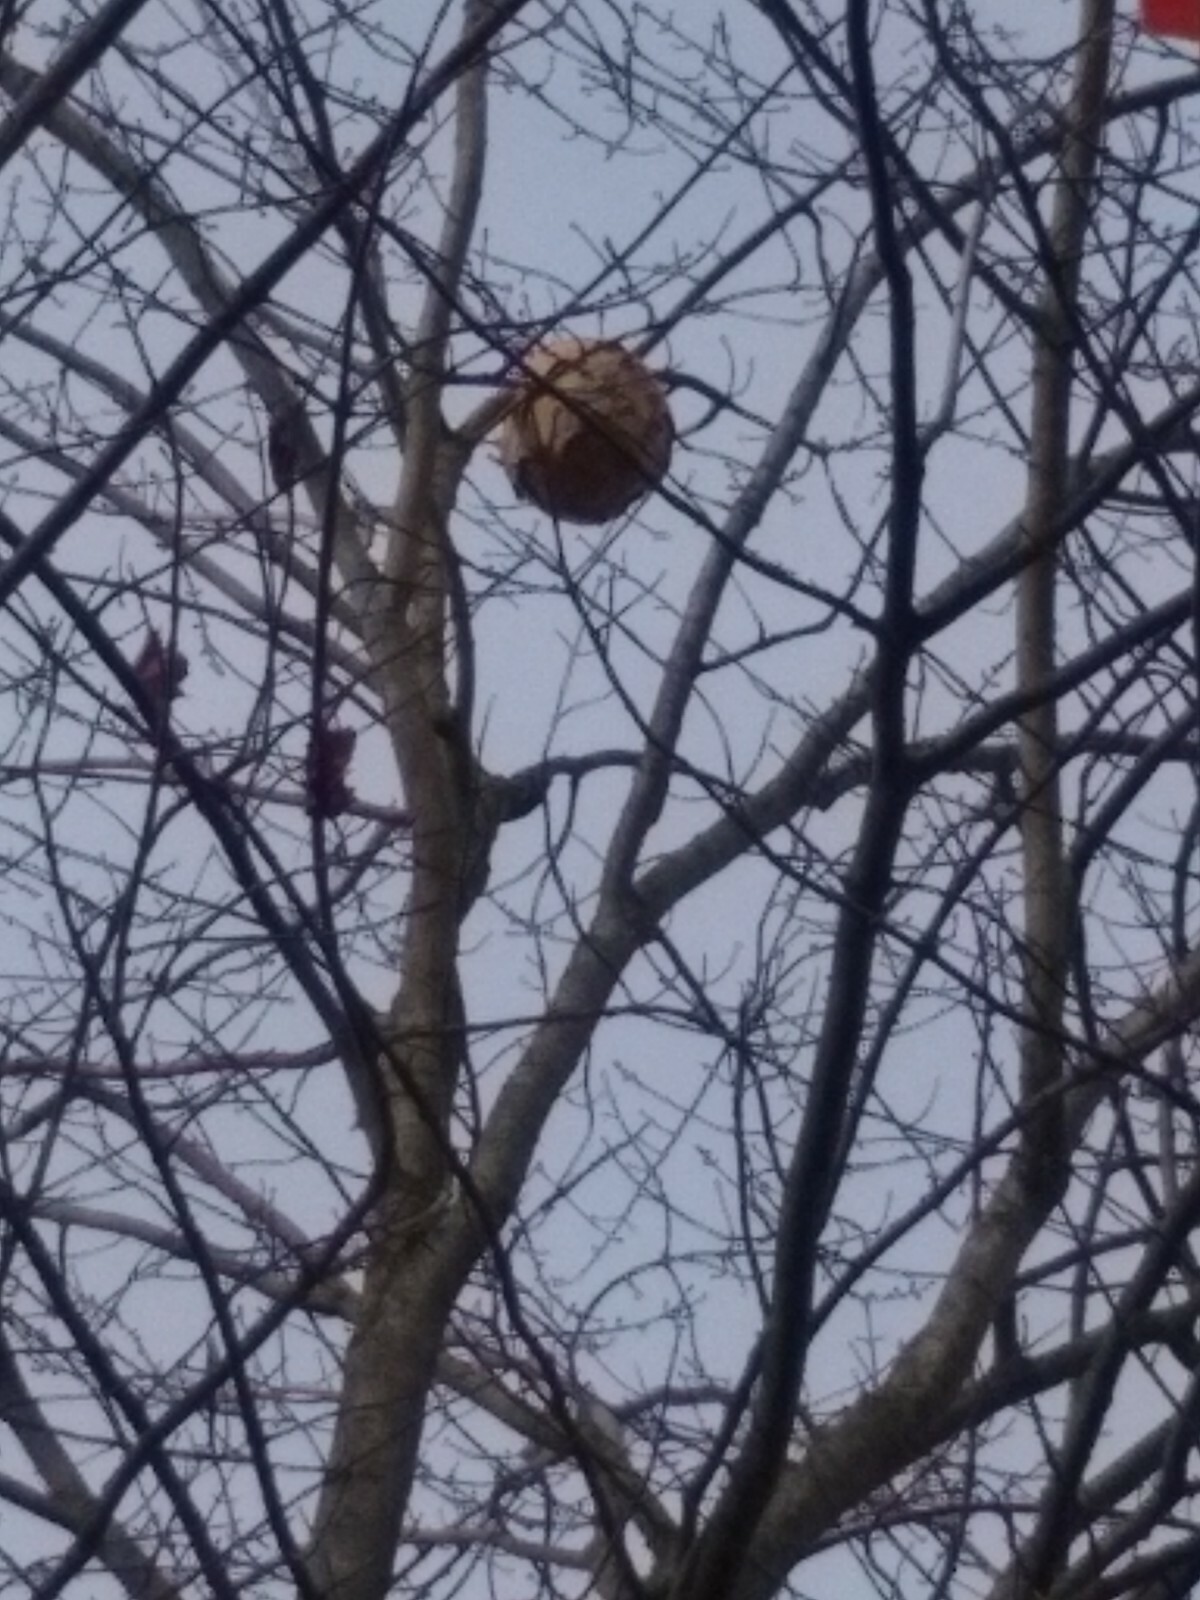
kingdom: Animalia
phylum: Arthropoda
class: Insecta
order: Hymenoptera
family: Vespidae
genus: Vespa
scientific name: Vespa velutina
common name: Asian hornet
